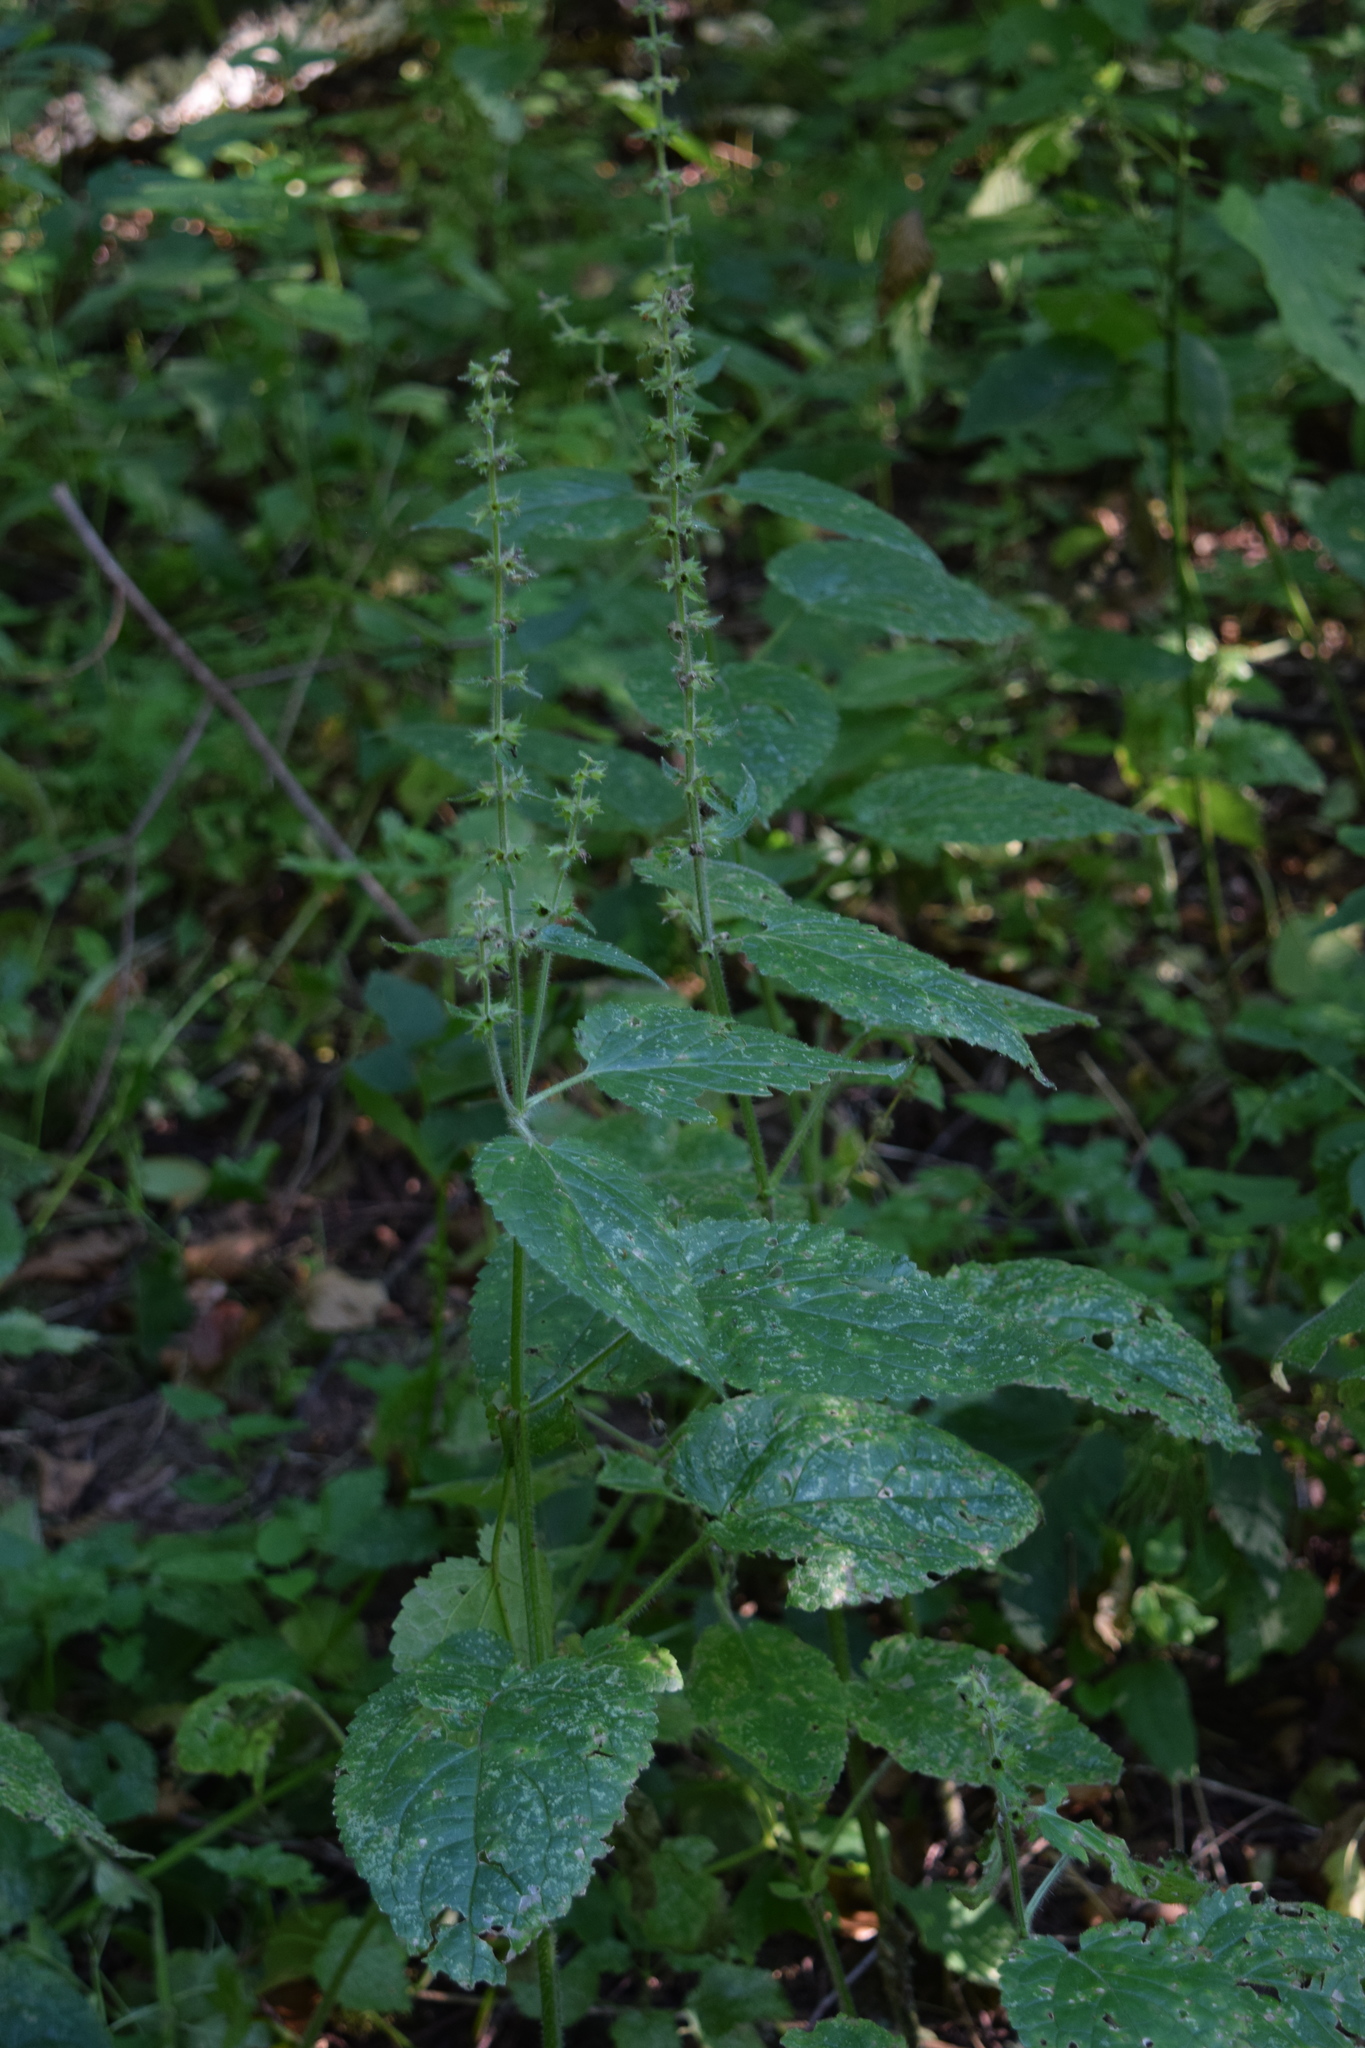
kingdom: Plantae
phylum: Tracheophyta
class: Magnoliopsida
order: Lamiales
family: Lamiaceae
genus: Stachys
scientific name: Stachys sylvatica
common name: Hedge woundwort
